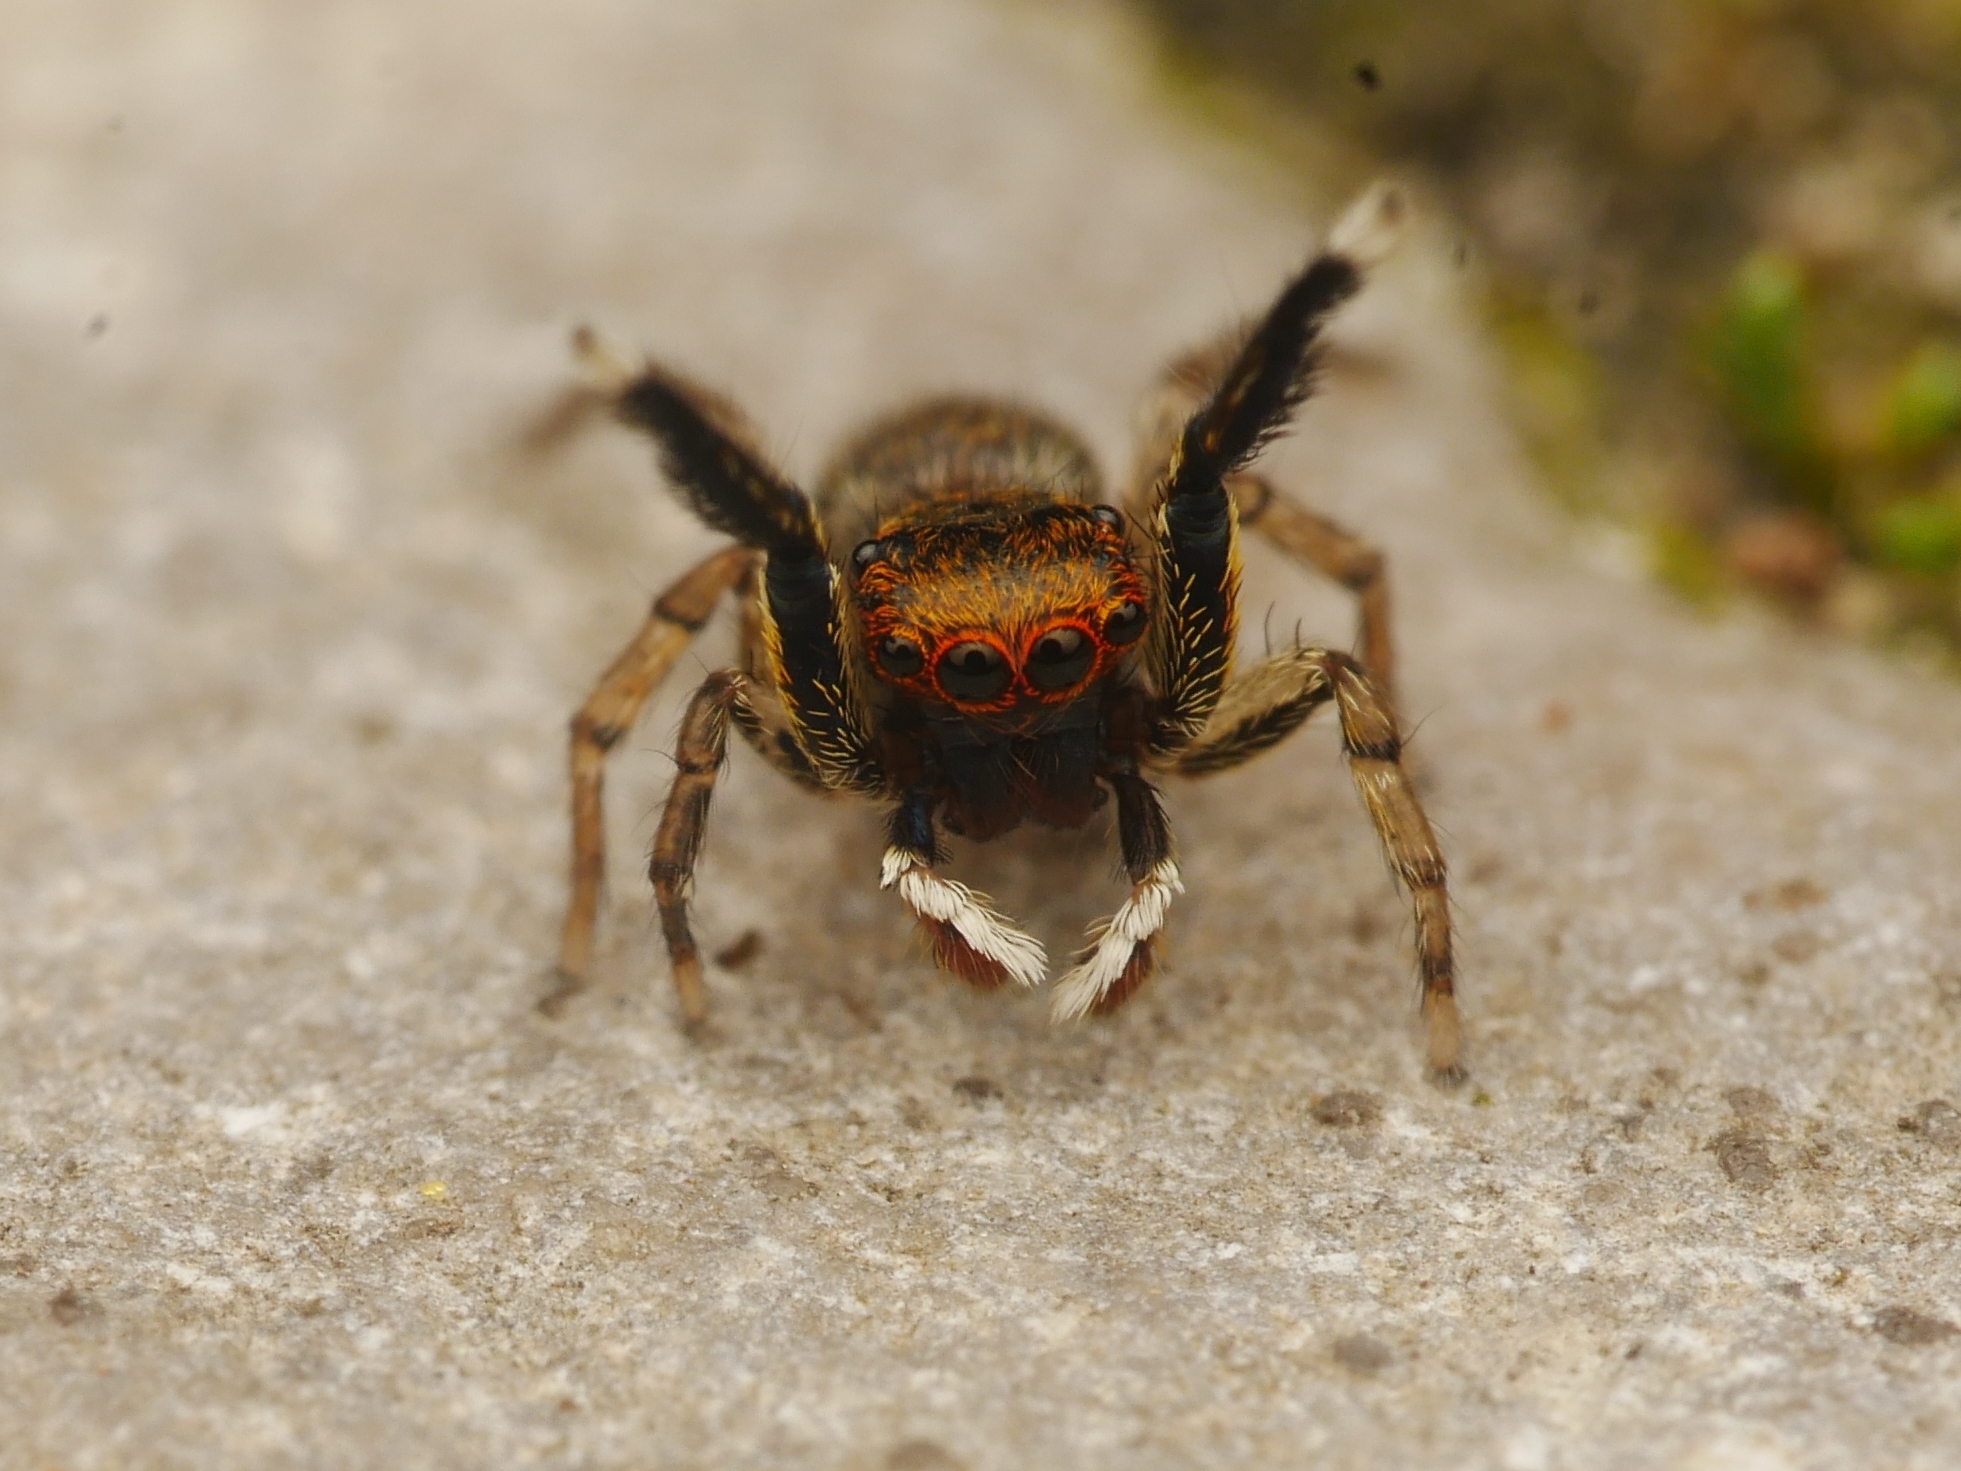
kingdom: Animalia
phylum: Arthropoda
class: Arachnida
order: Araneae
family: Salticidae
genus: Euophrys
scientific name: Euophrys frontalis
